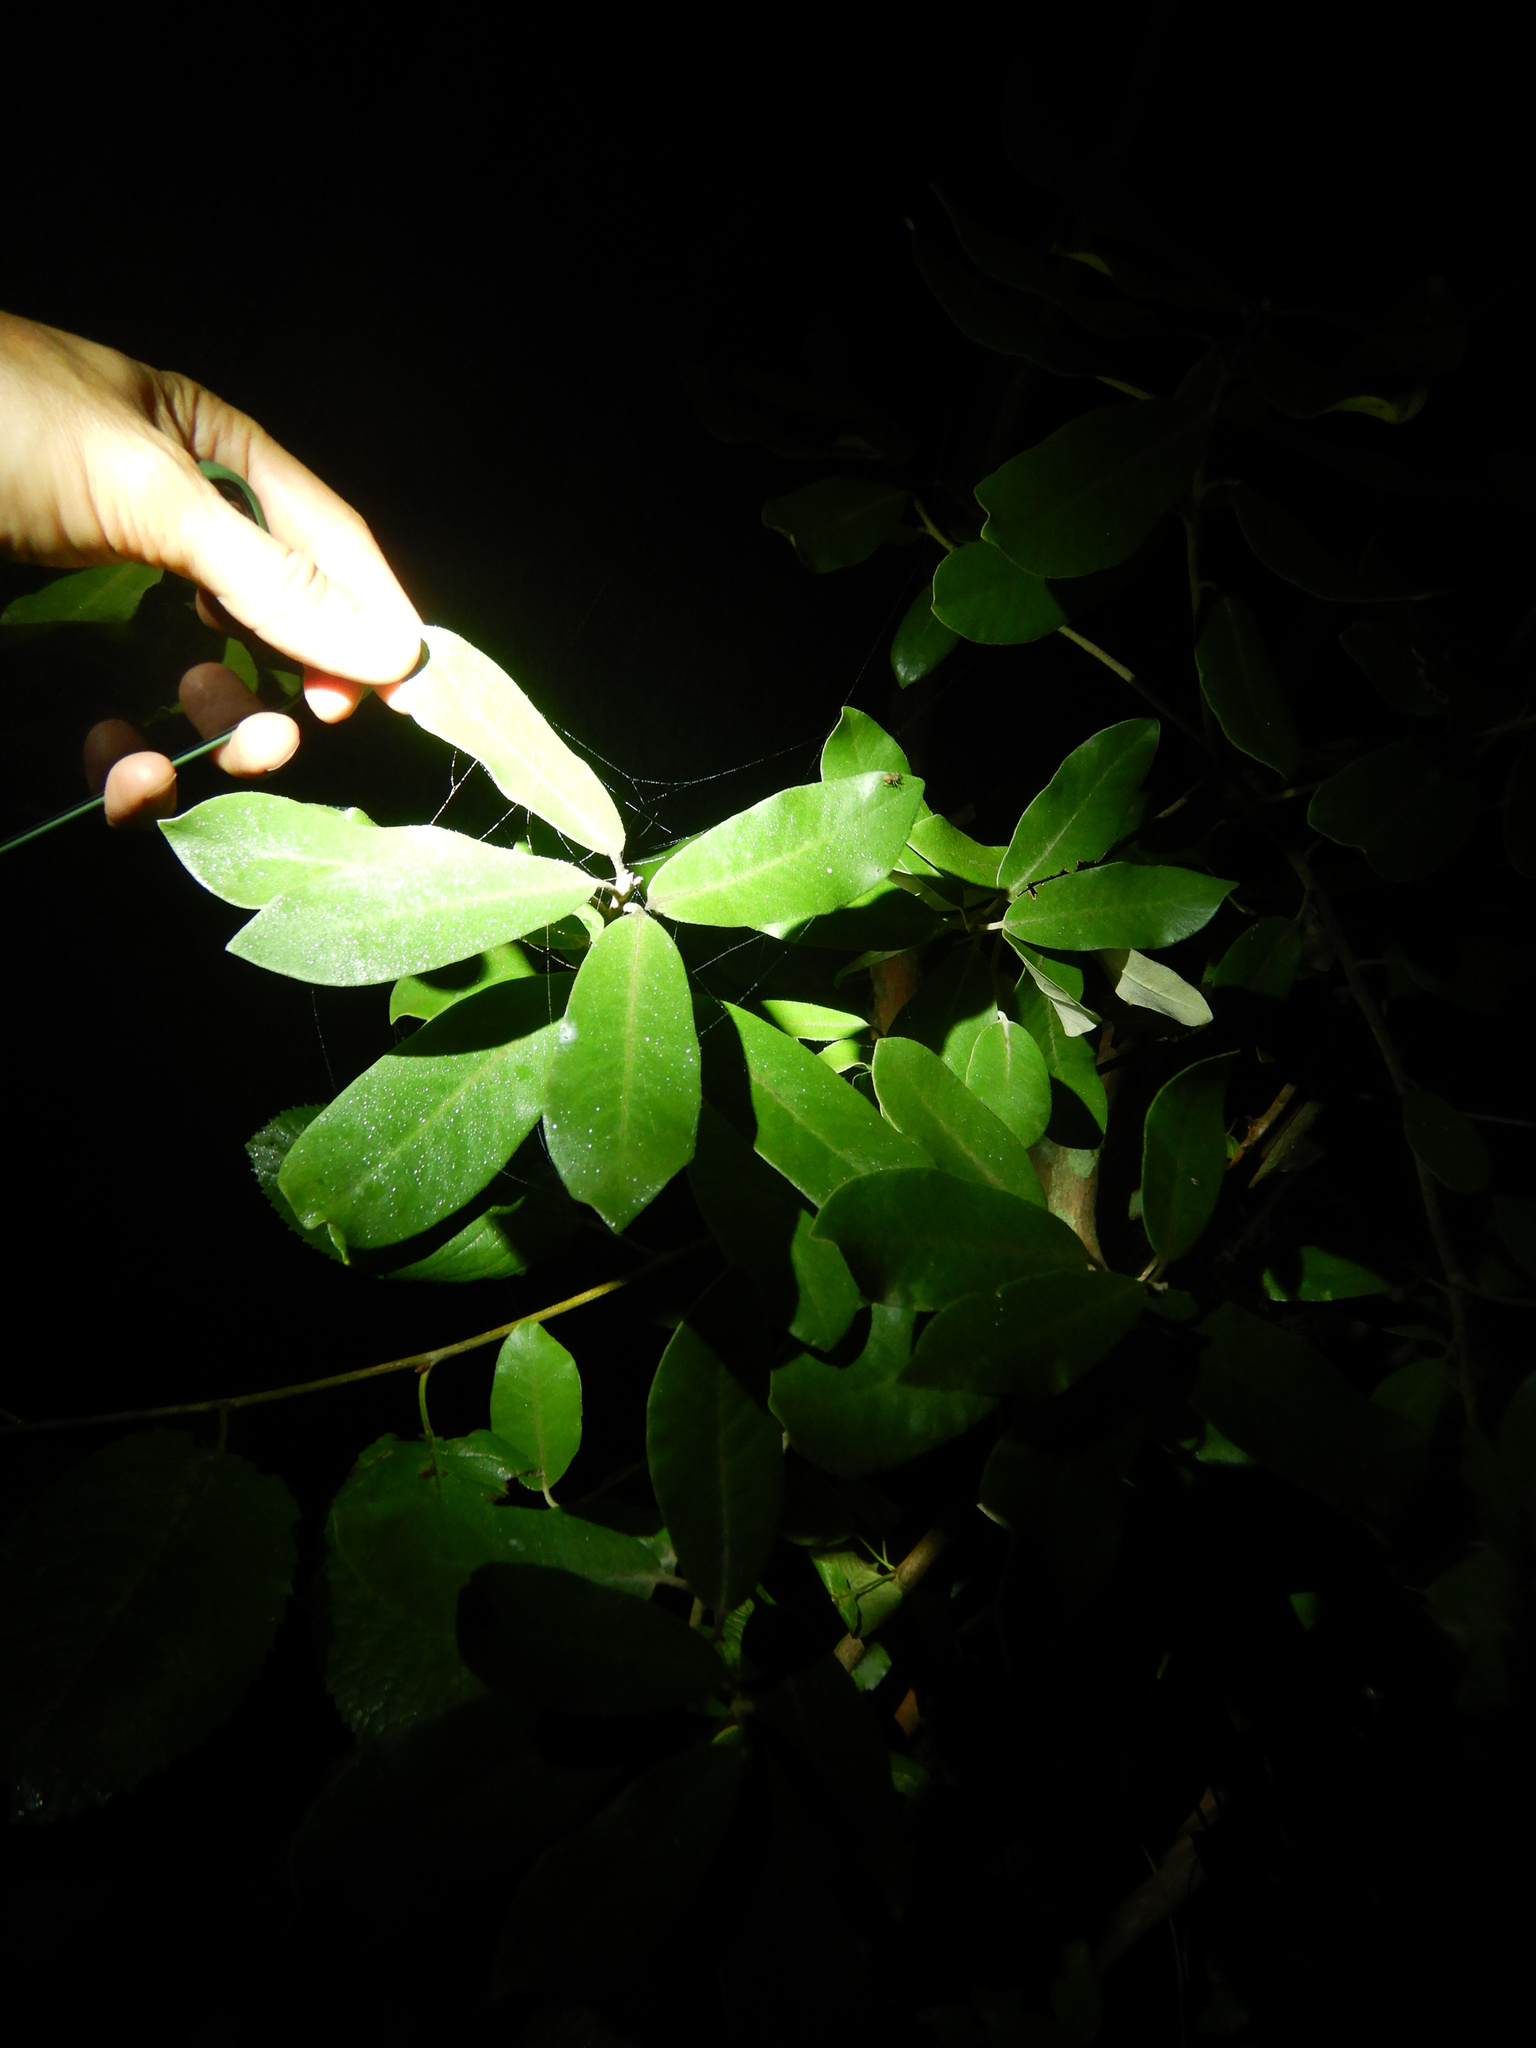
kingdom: Plantae
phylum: Tracheophyta
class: Magnoliopsida
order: Apiales
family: Pittosporaceae
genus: Pittosporum
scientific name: Pittosporum ralphii
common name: Ralph's desertwillow
